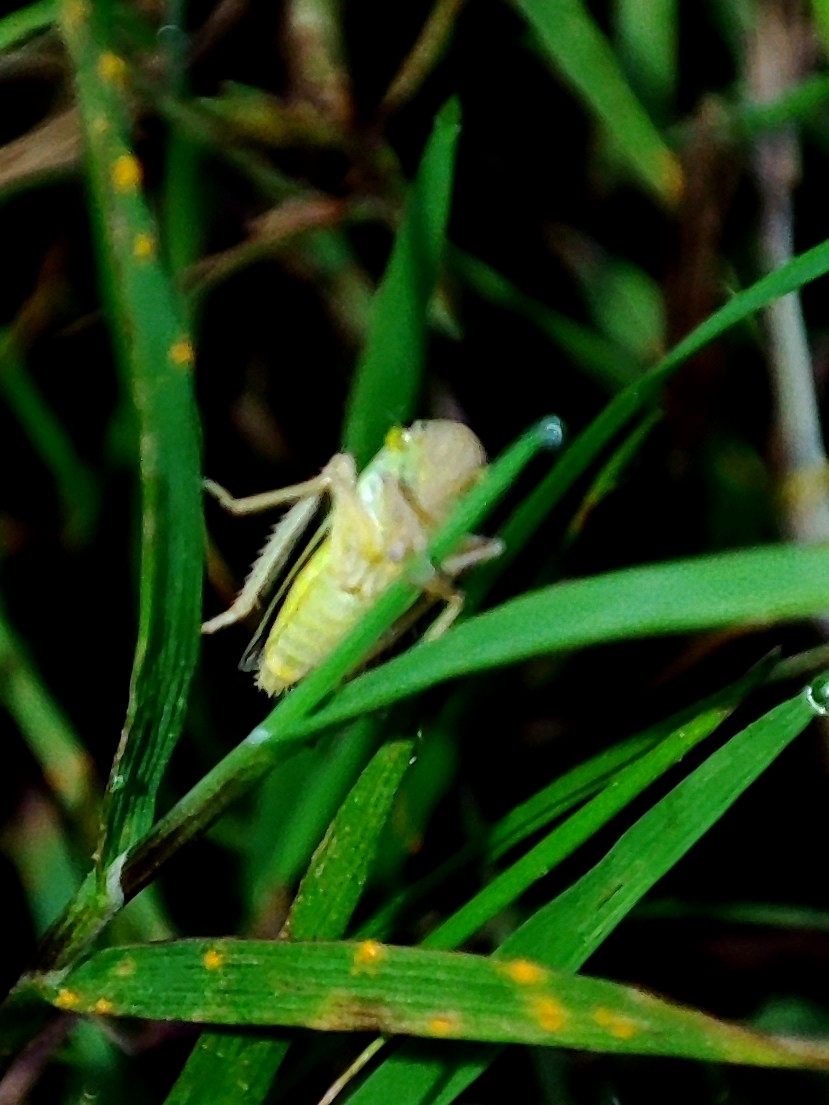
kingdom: Animalia
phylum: Arthropoda
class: Insecta
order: Hemiptera
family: Cicadellidae
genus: Cicadella
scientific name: Cicadella viridis
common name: Leafhopper
